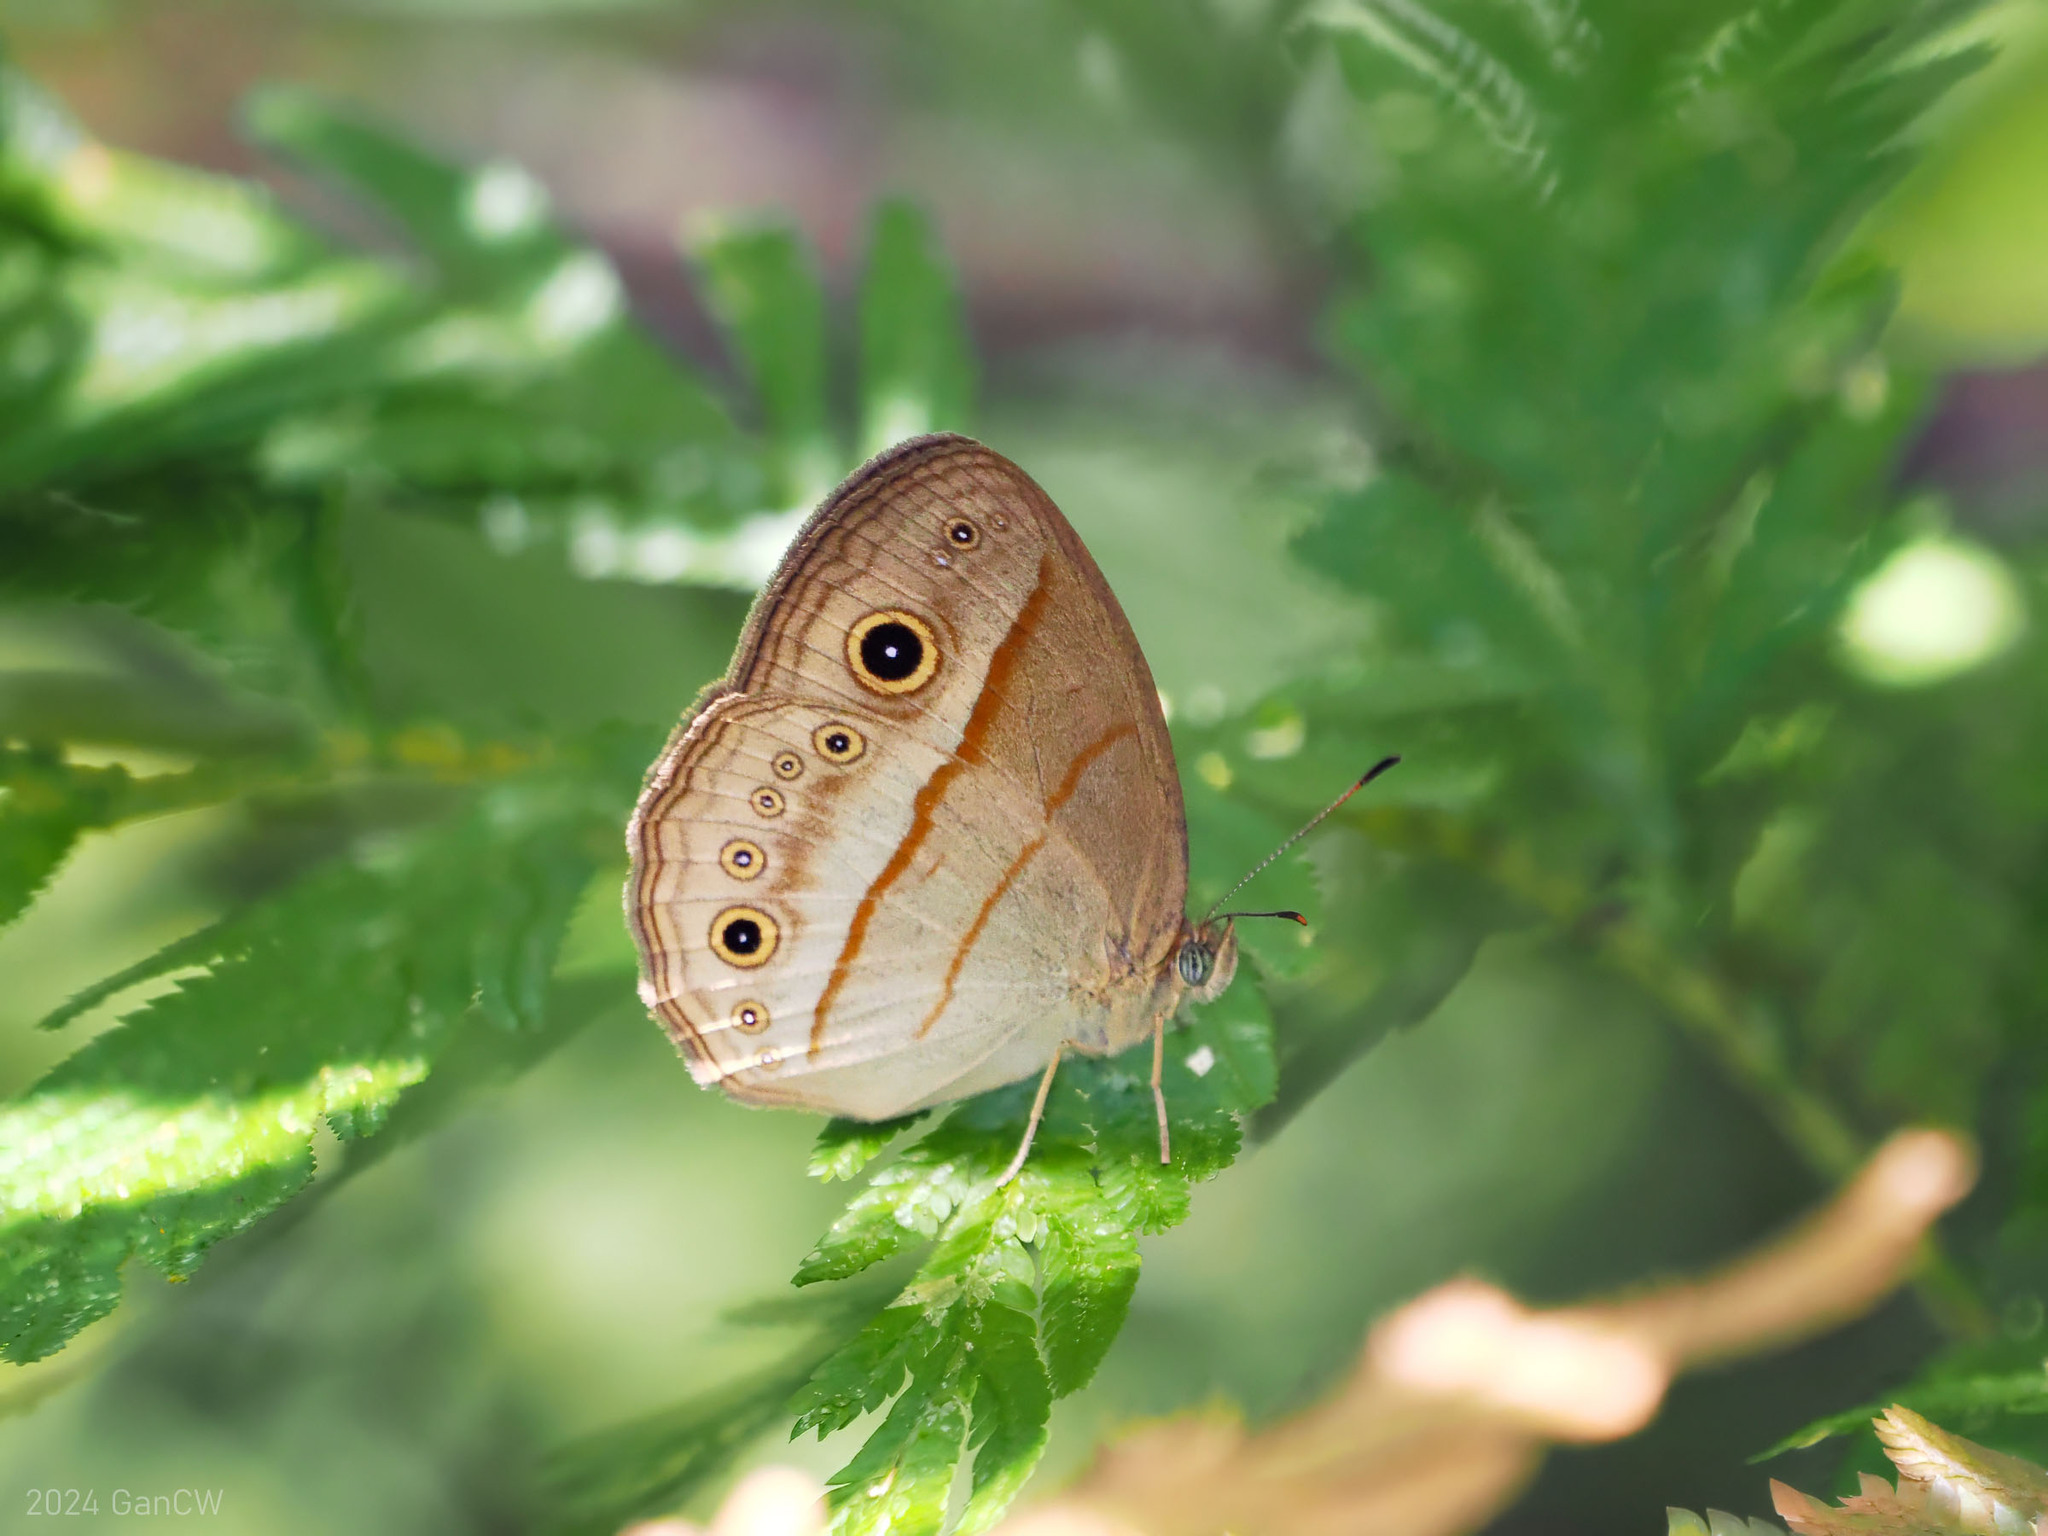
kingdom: Animalia
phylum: Arthropoda
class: Insecta
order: Lepidoptera
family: Nymphalidae
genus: Mycalesis
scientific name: Mycalesis ita
